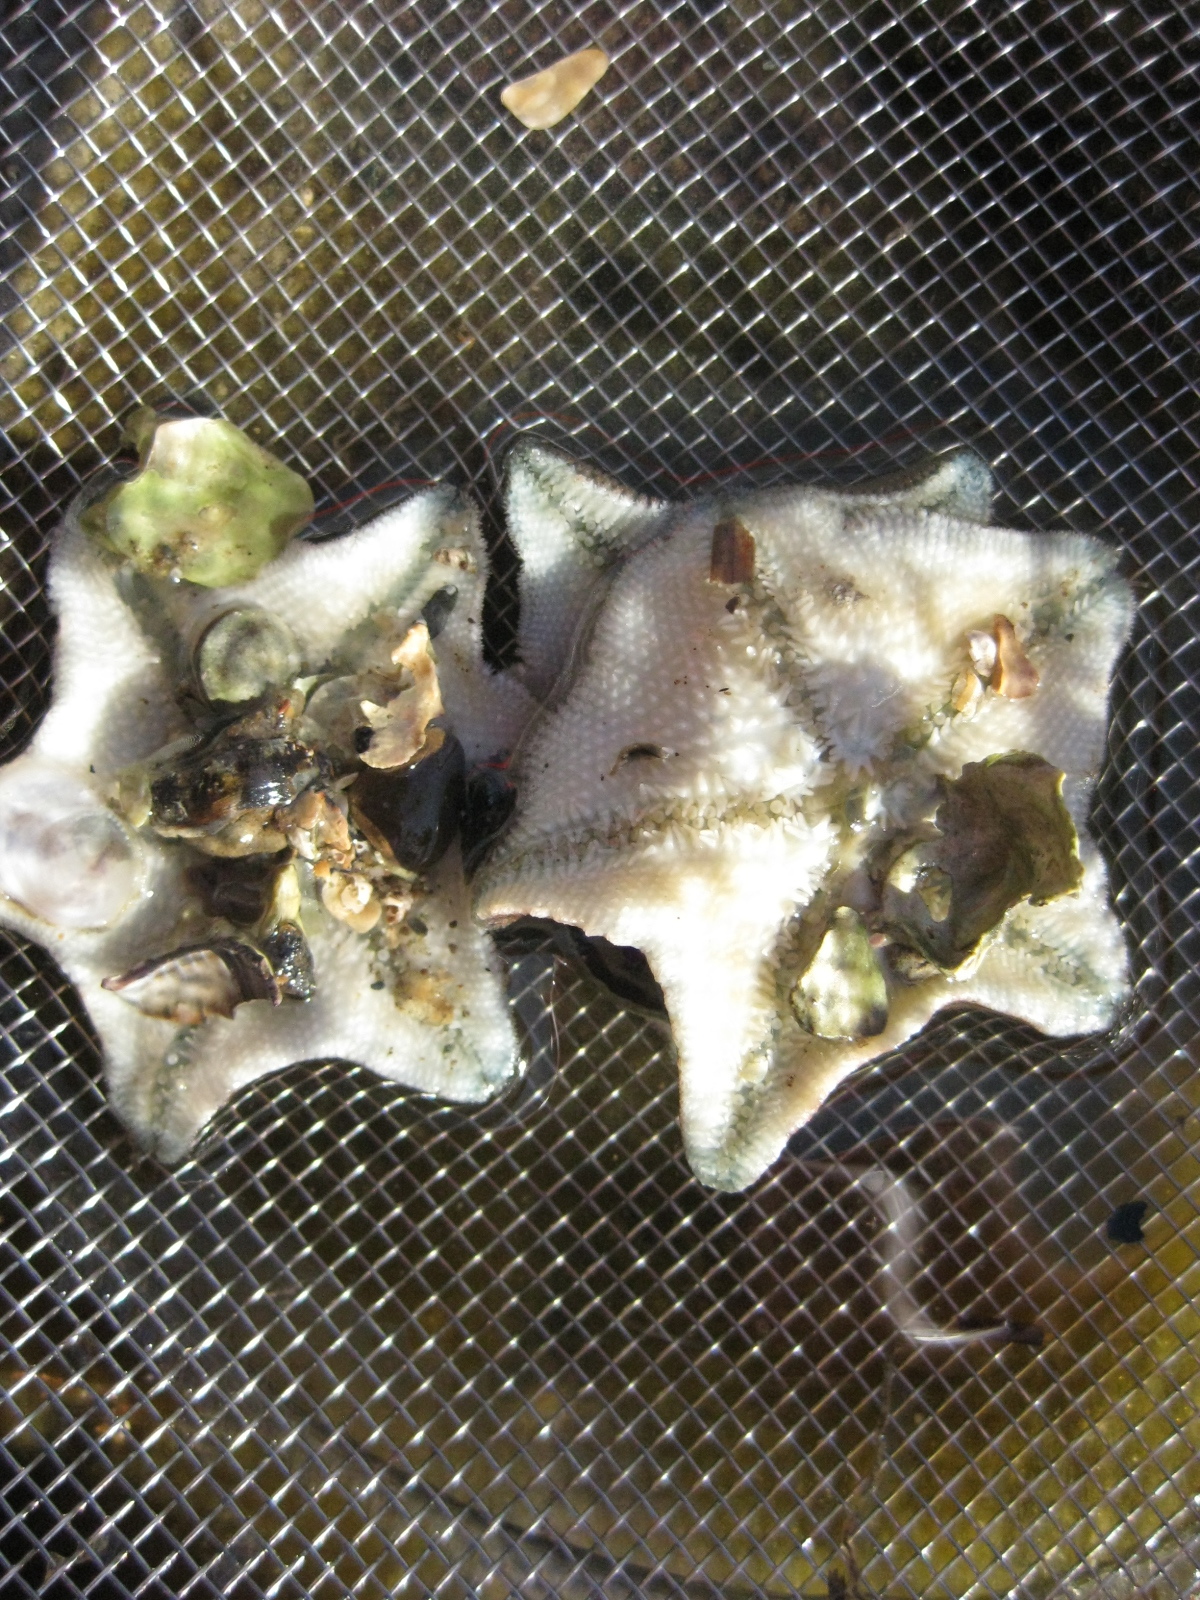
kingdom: Animalia
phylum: Echinodermata
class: Asteroidea
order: Valvatida
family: Asterinidae
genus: Patiriella
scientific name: Patiriella regularis
